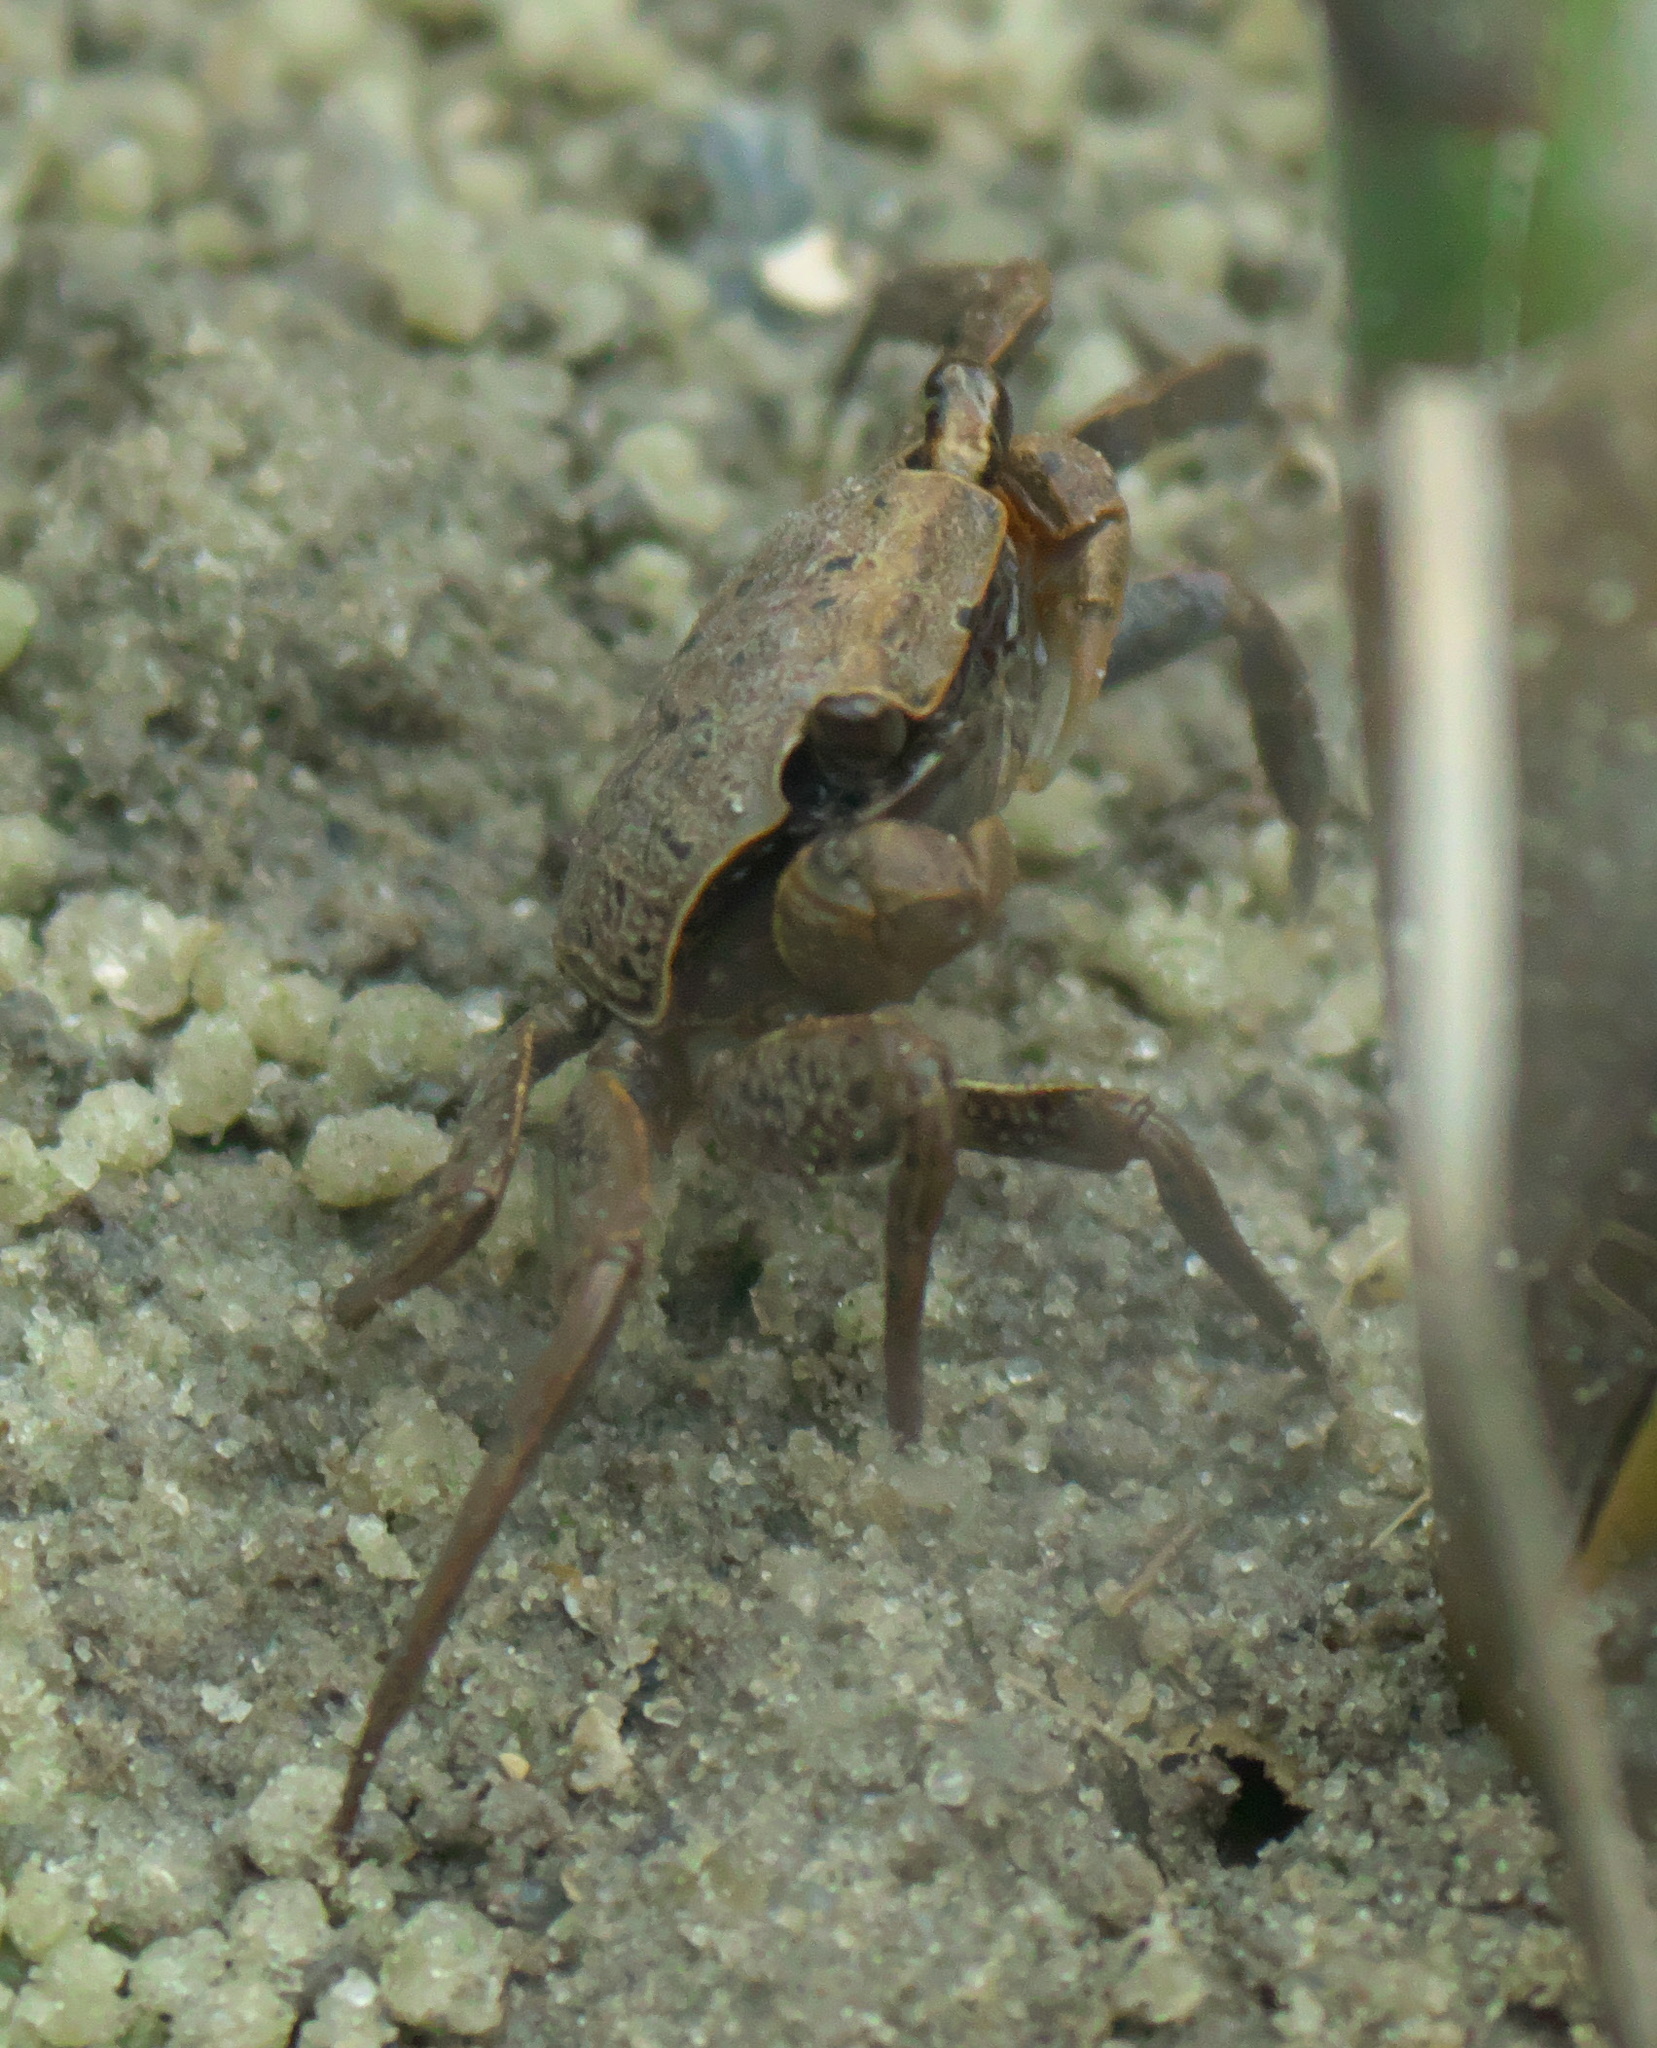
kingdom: Animalia
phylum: Arthropoda
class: Malacostraca
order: Decapoda
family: Sesarmidae
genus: Armases
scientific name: Armases cinereum
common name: Squareback marsh crab
